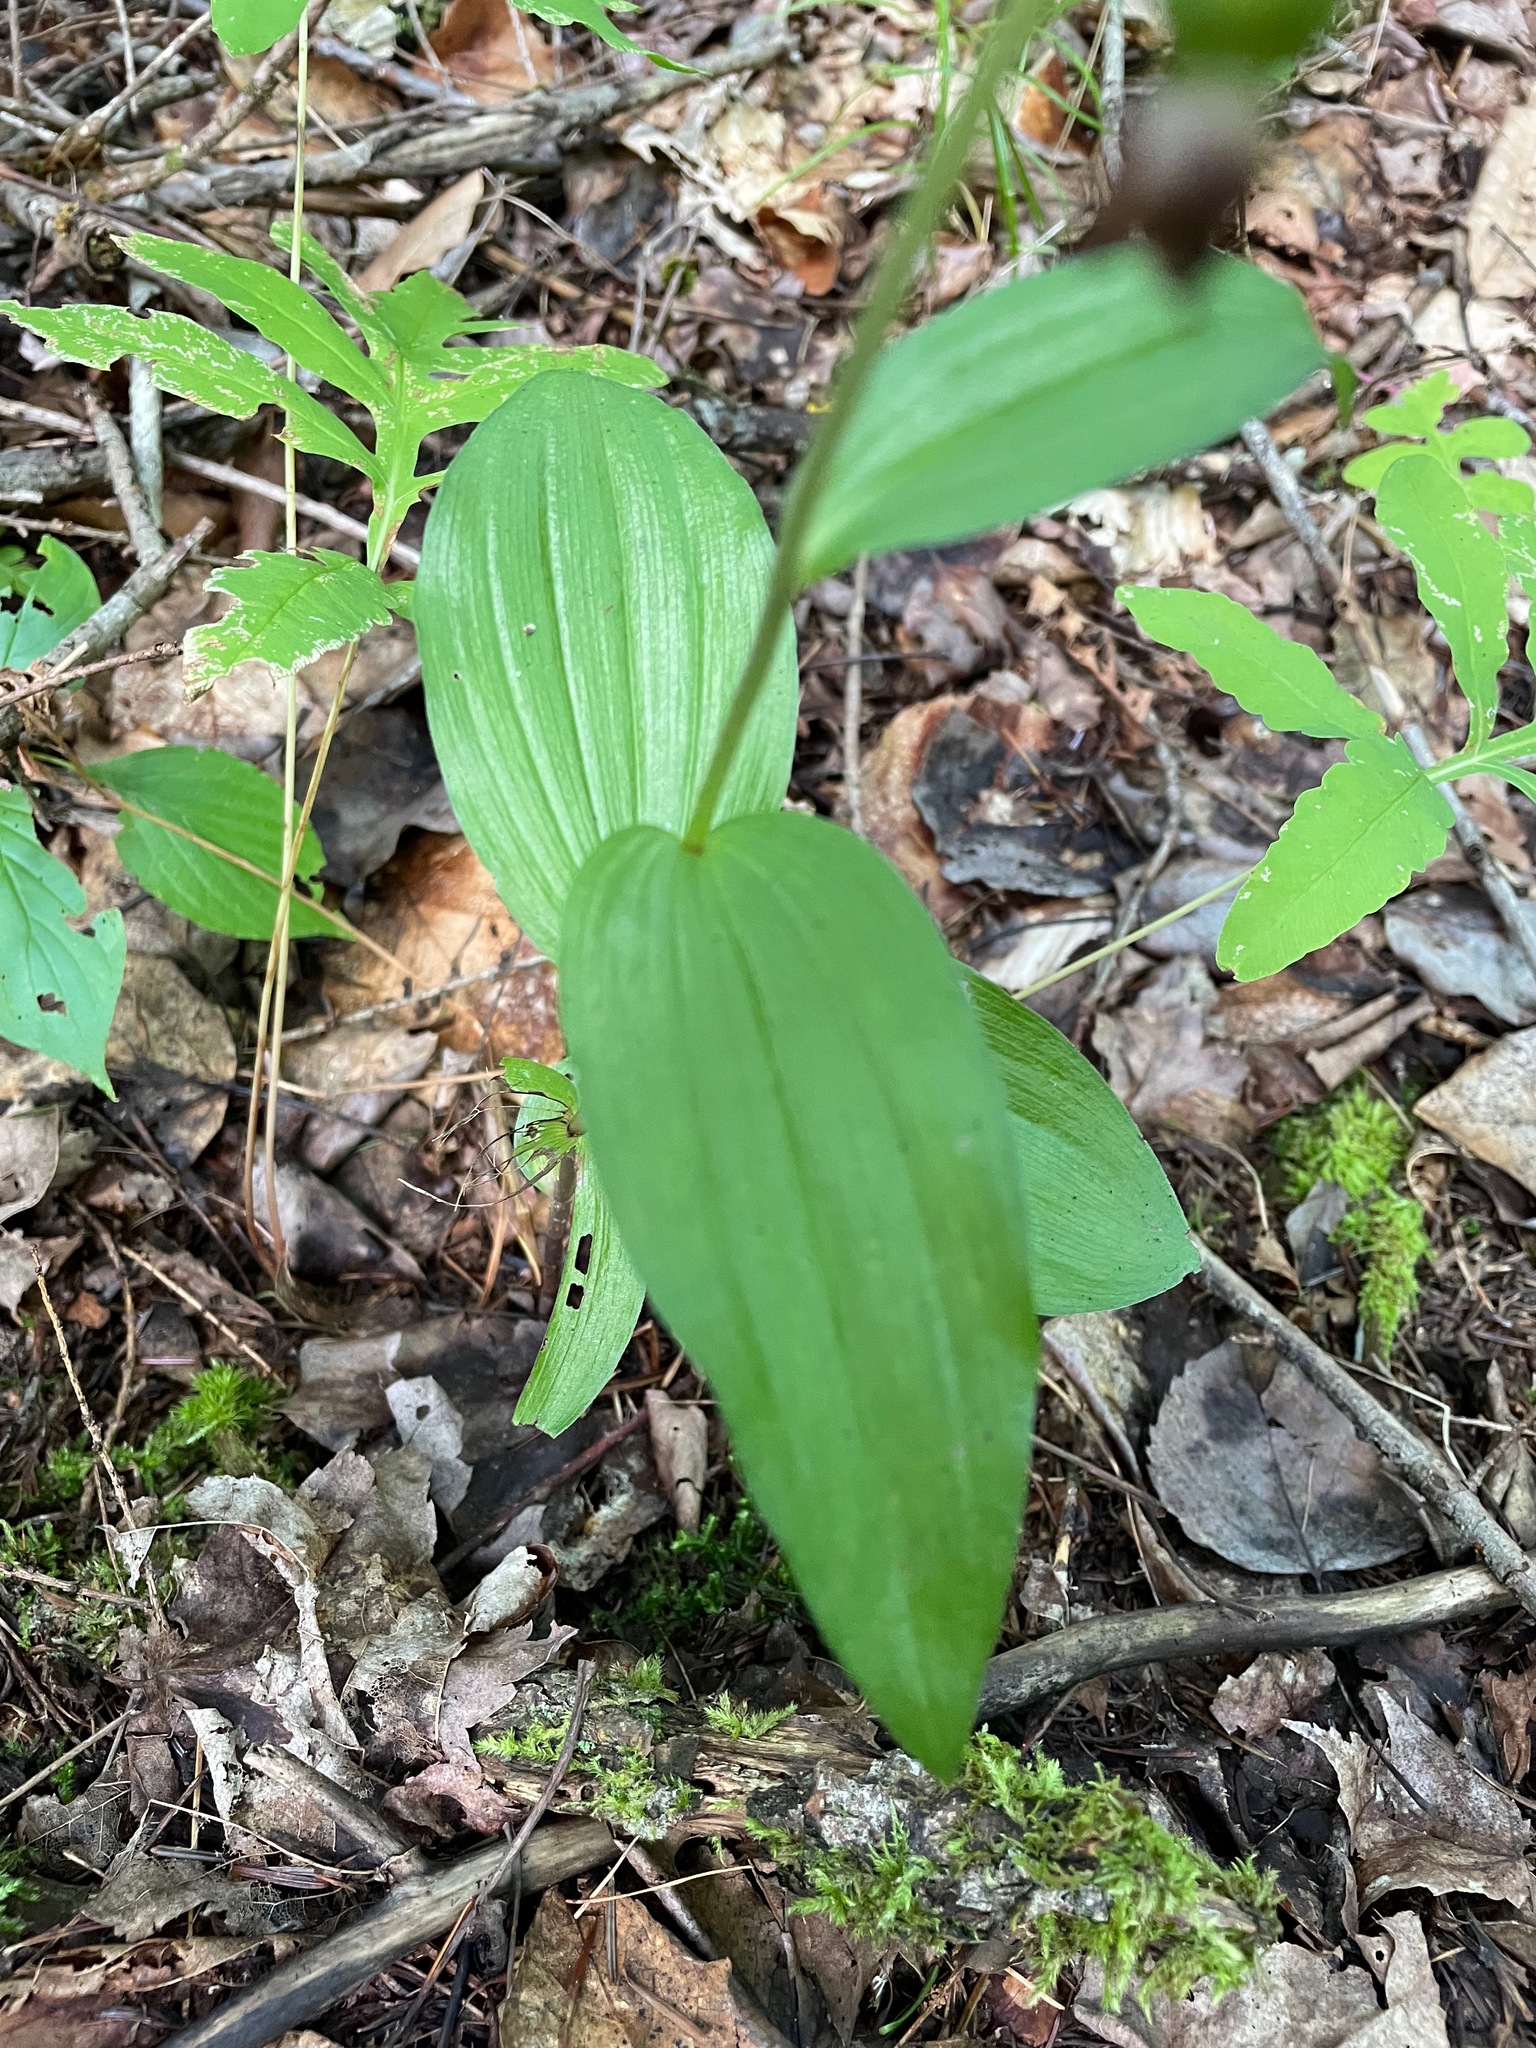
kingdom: Plantae
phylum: Tracheophyta
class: Liliopsida
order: Asparagales
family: Orchidaceae
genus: Epipactis
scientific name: Epipactis helleborine
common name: Broad-leaved helleborine
